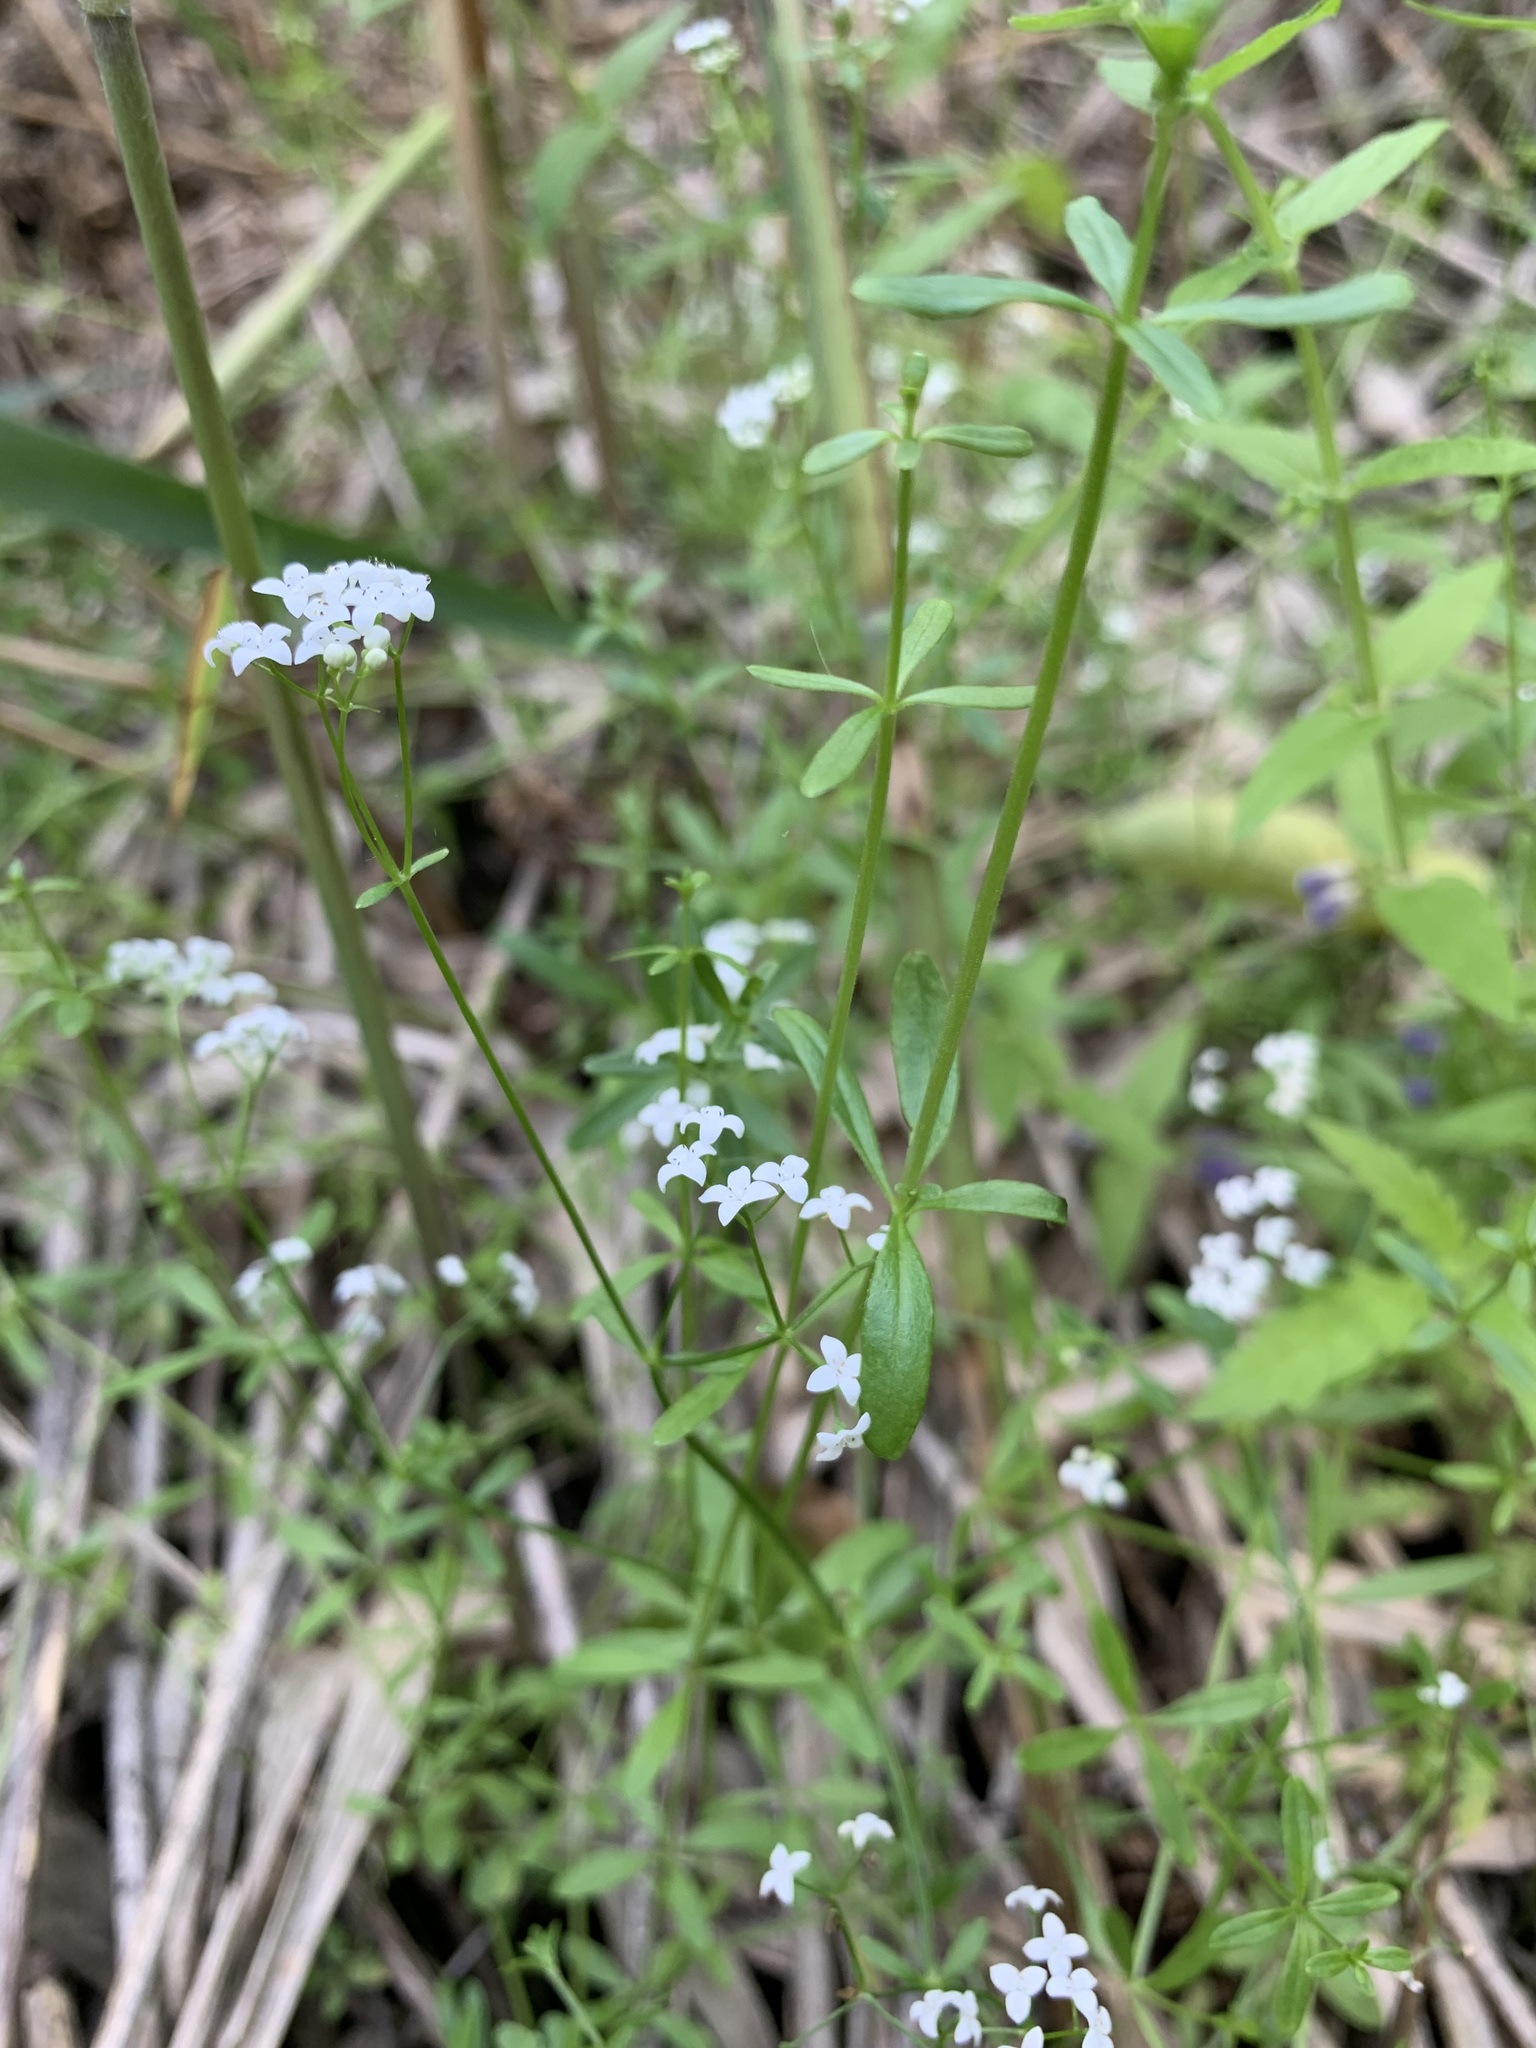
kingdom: Plantae
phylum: Tracheophyta
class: Magnoliopsida
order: Gentianales
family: Rubiaceae
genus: Galium
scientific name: Galium palustre
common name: Common marsh-bedstraw
